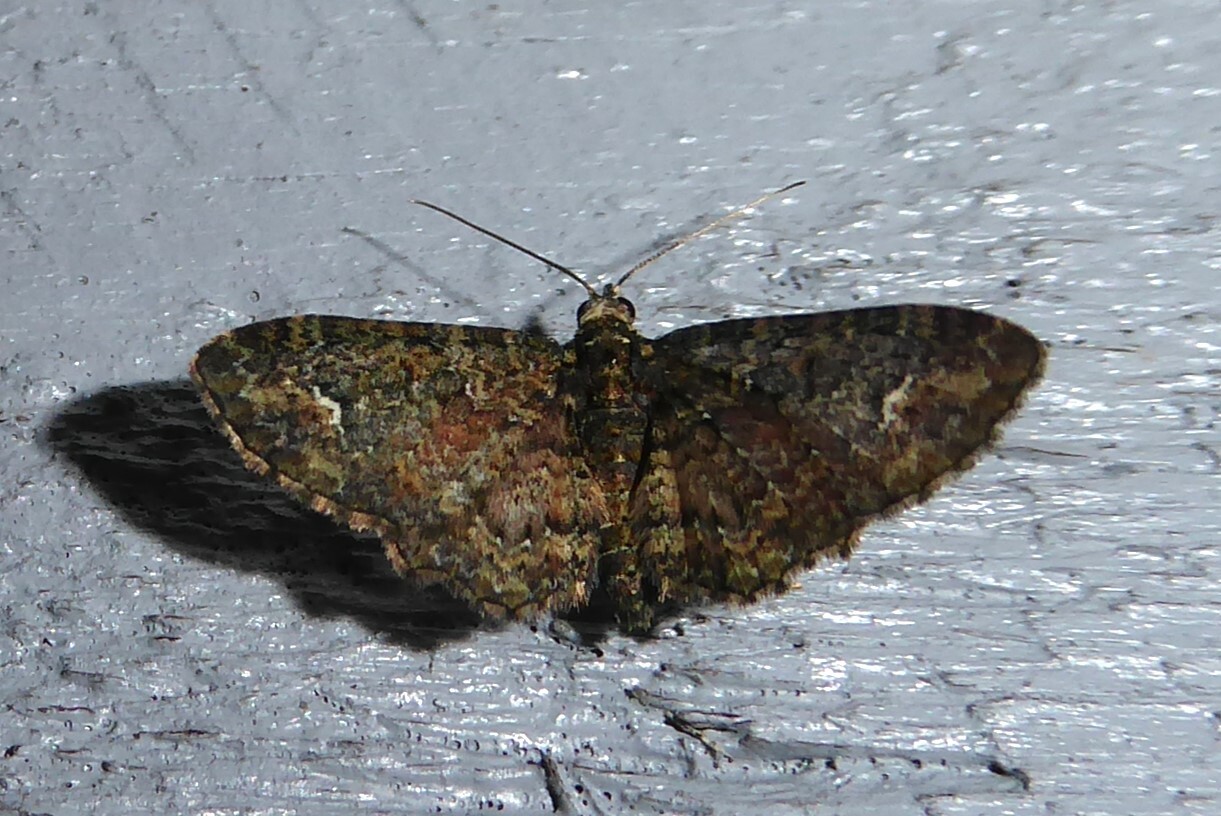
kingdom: Animalia
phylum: Arthropoda
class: Insecta
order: Lepidoptera
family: Geometridae
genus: Pasiphilodes
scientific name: Pasiphilodes testulata
